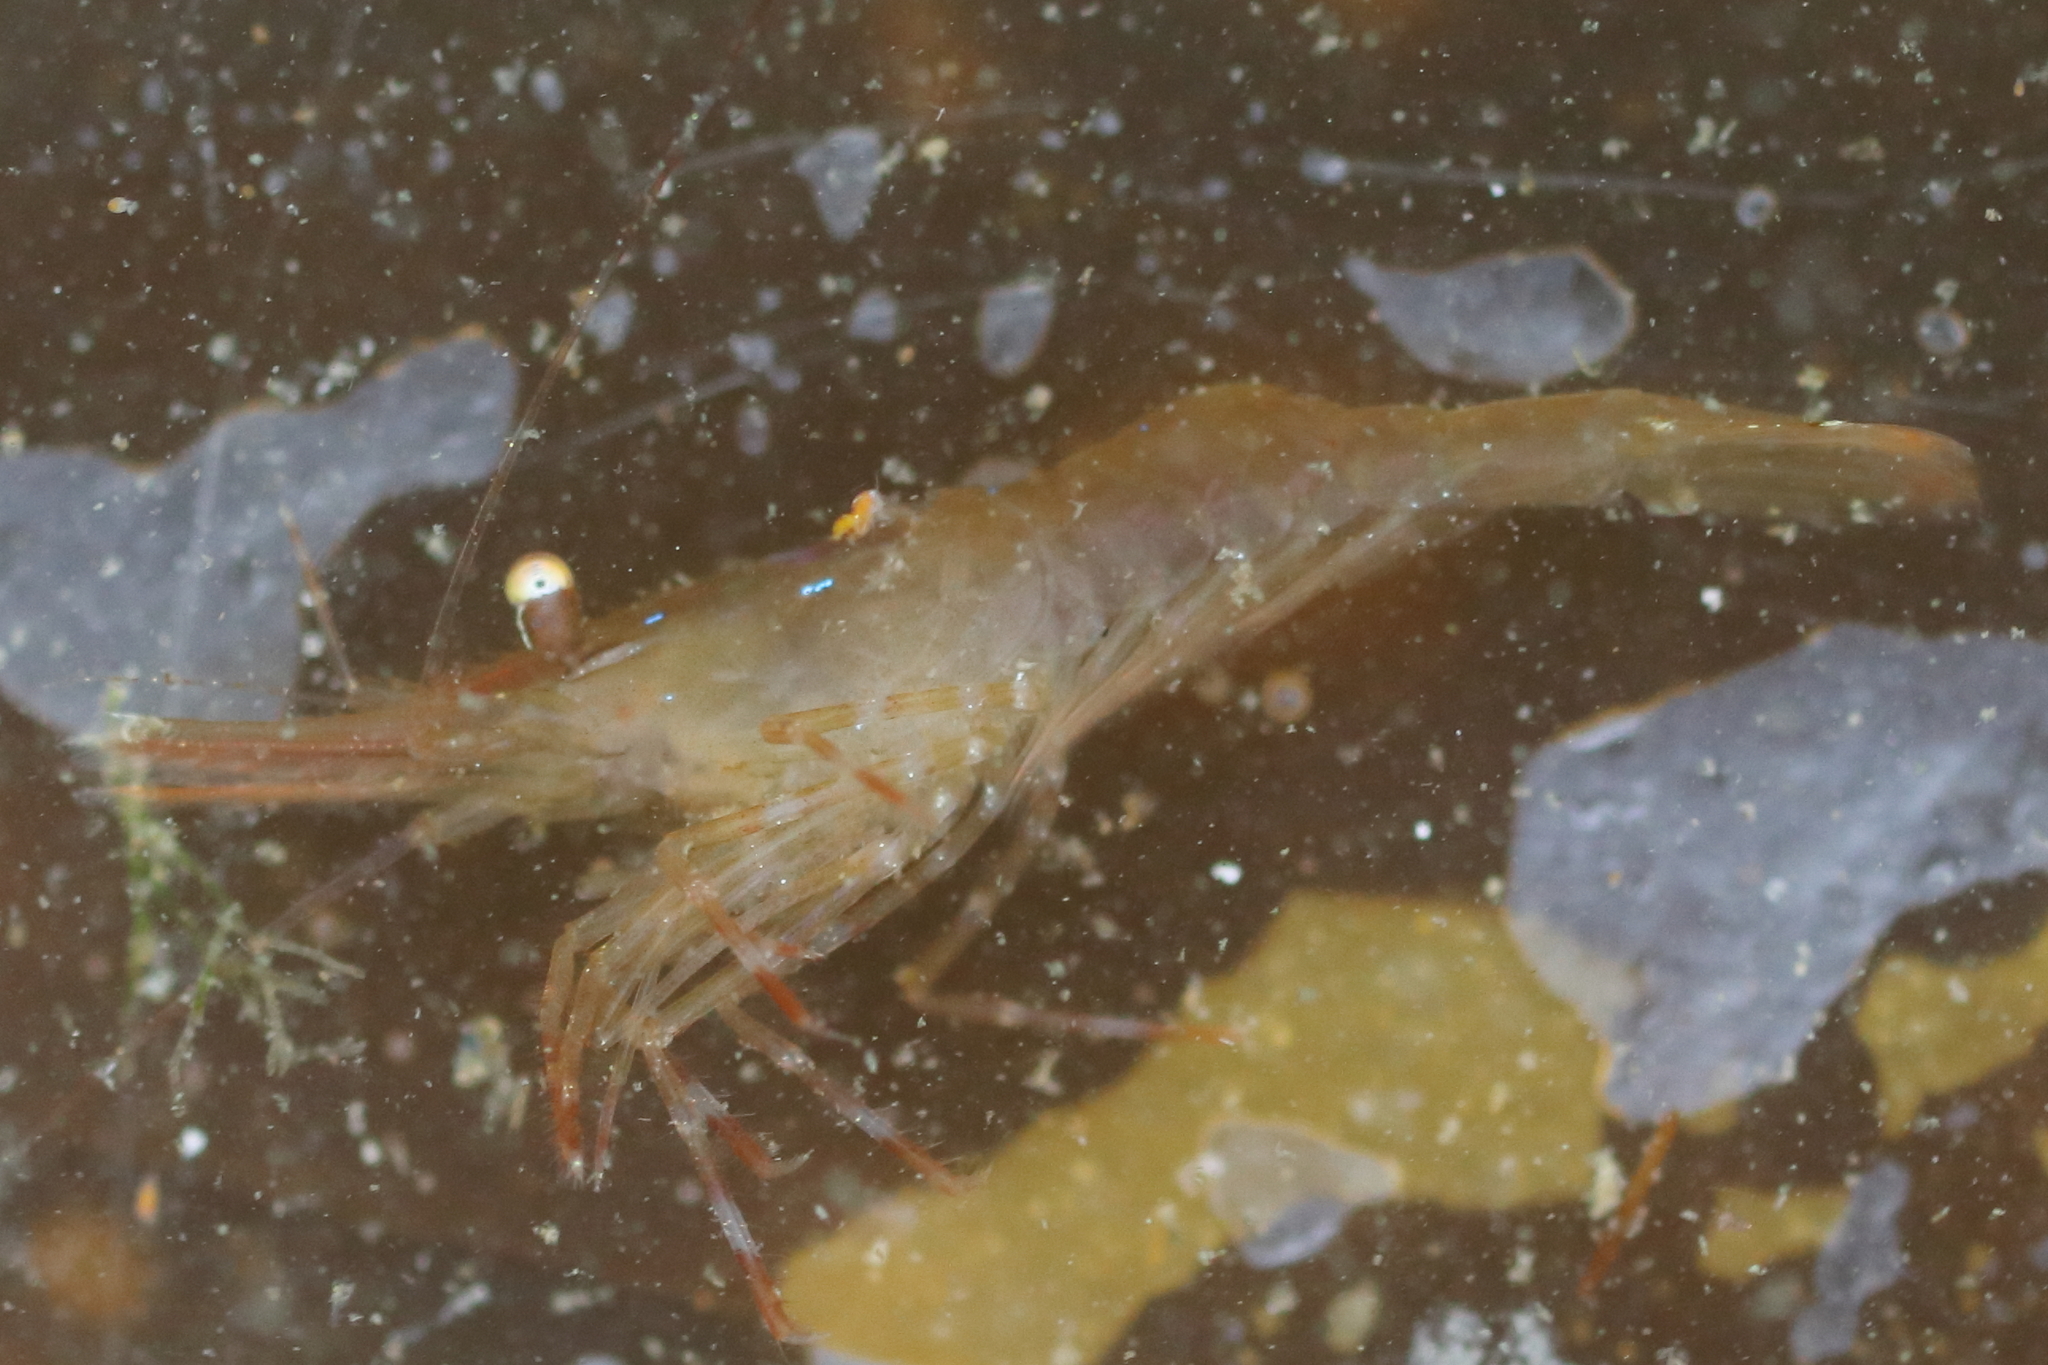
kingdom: Animalia
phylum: Arthropoda
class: Malacostraca
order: Decapoda
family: Pandalidae
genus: Pandalus
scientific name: Pandalus danae
